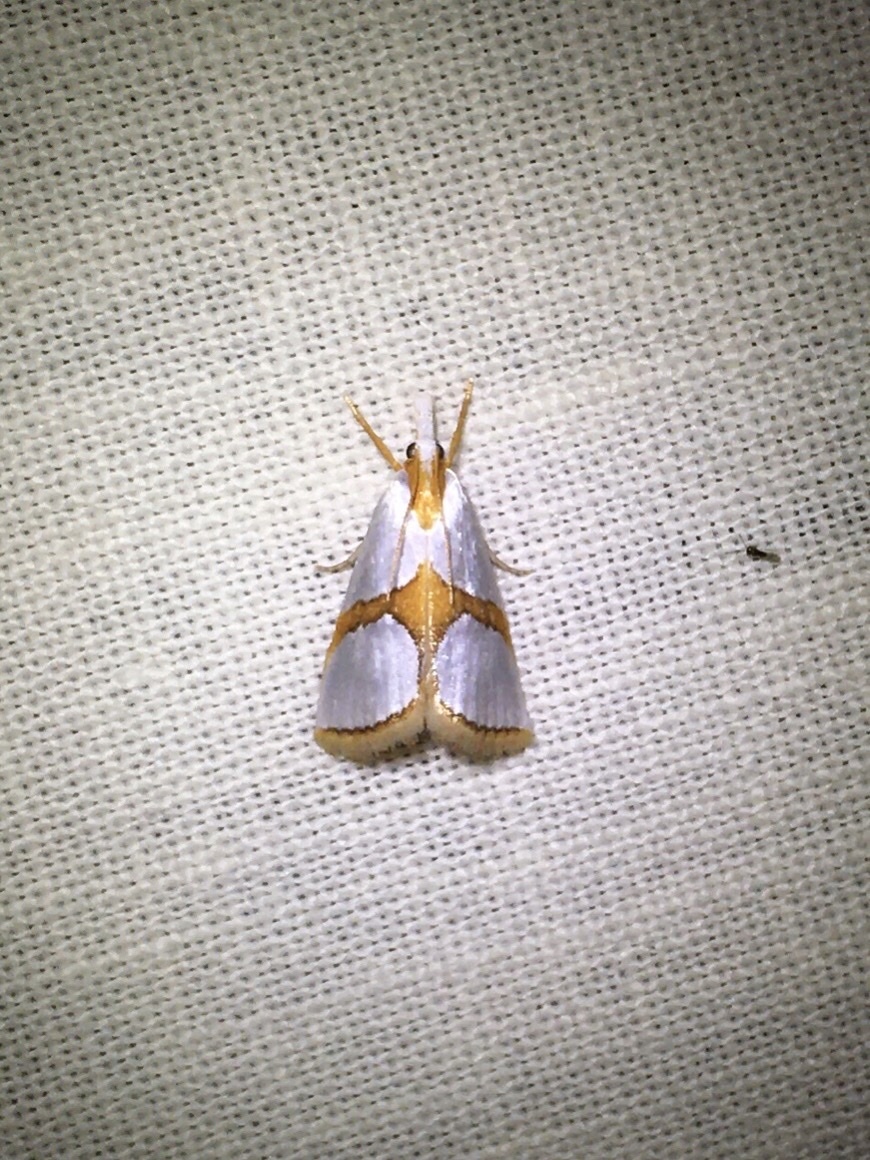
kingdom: Animalia
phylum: Arthropoda
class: Insecta
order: Lepidoptera
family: Crambidae
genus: Argyria
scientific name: Argyria auratella
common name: Curve-lined argyria moth
